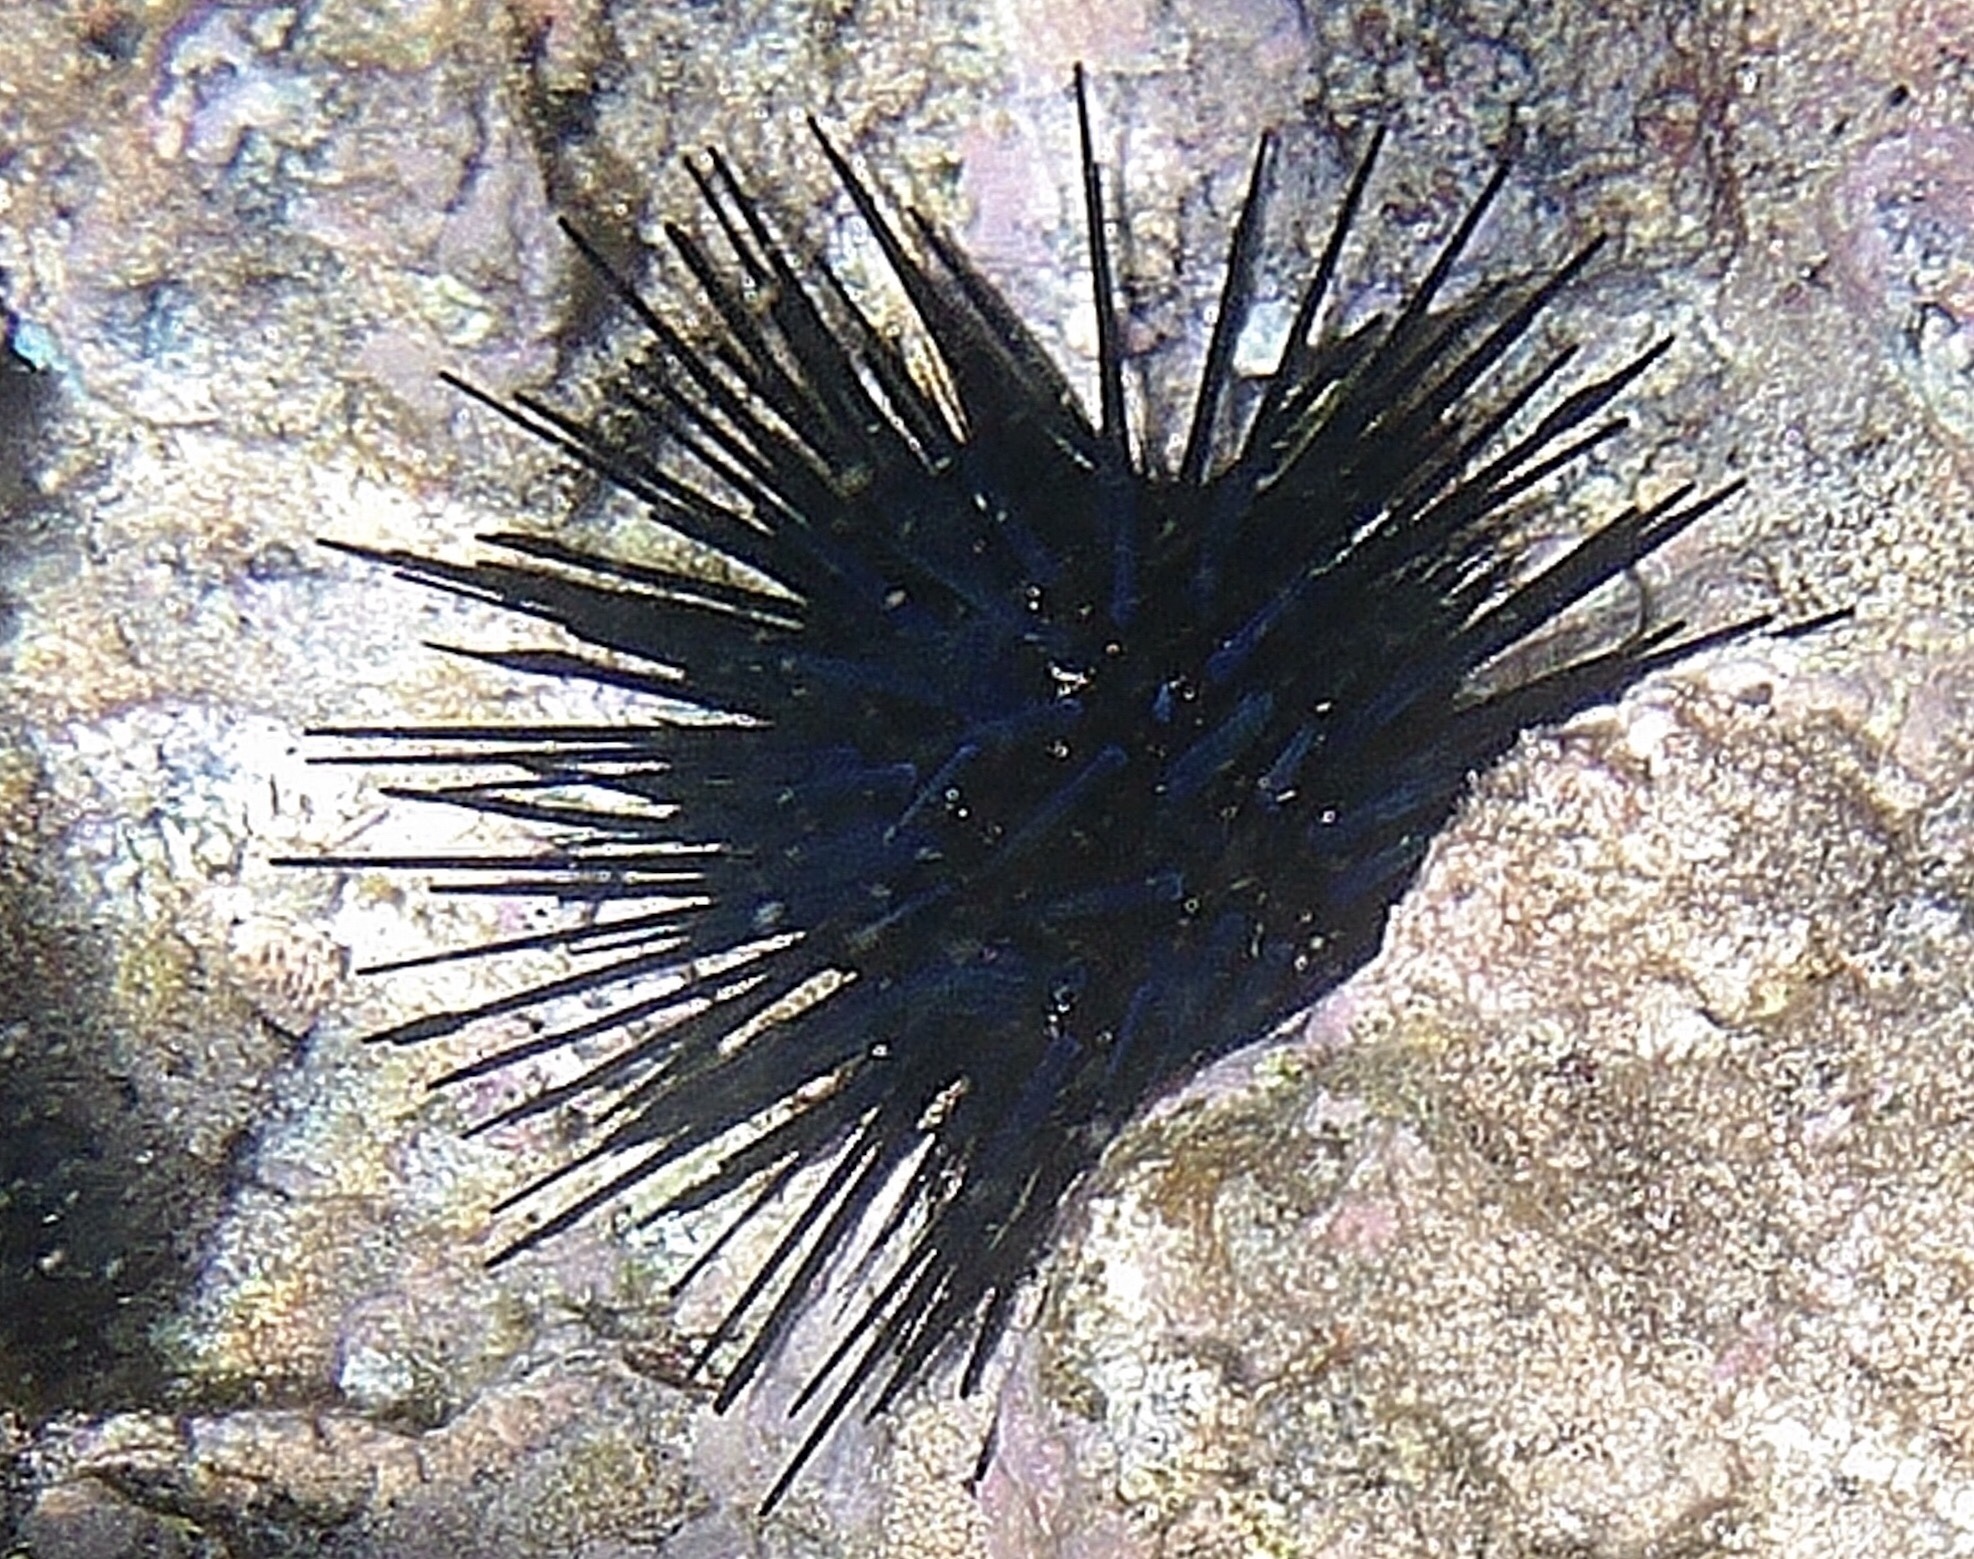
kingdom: Animalia
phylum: Echinodermata
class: Echinoidea
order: Diadematoida
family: Diadematidae
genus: Echinothrix
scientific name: Echinothrix diadema
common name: Schwarzer diademseeigel
